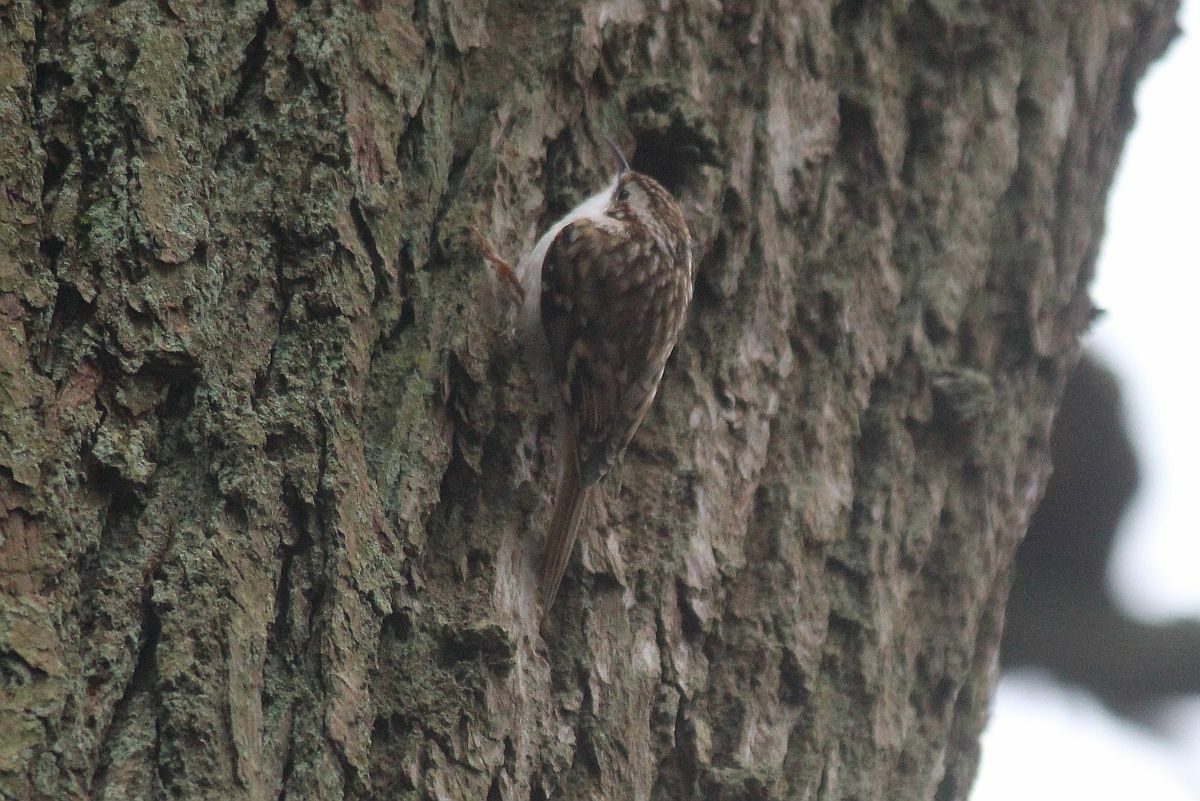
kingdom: Animalia
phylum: Chordata
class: Aves
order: Passeriformes
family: Certhiidae
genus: Certhia
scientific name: Certhia familiaris
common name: Eurasian treecreeper
